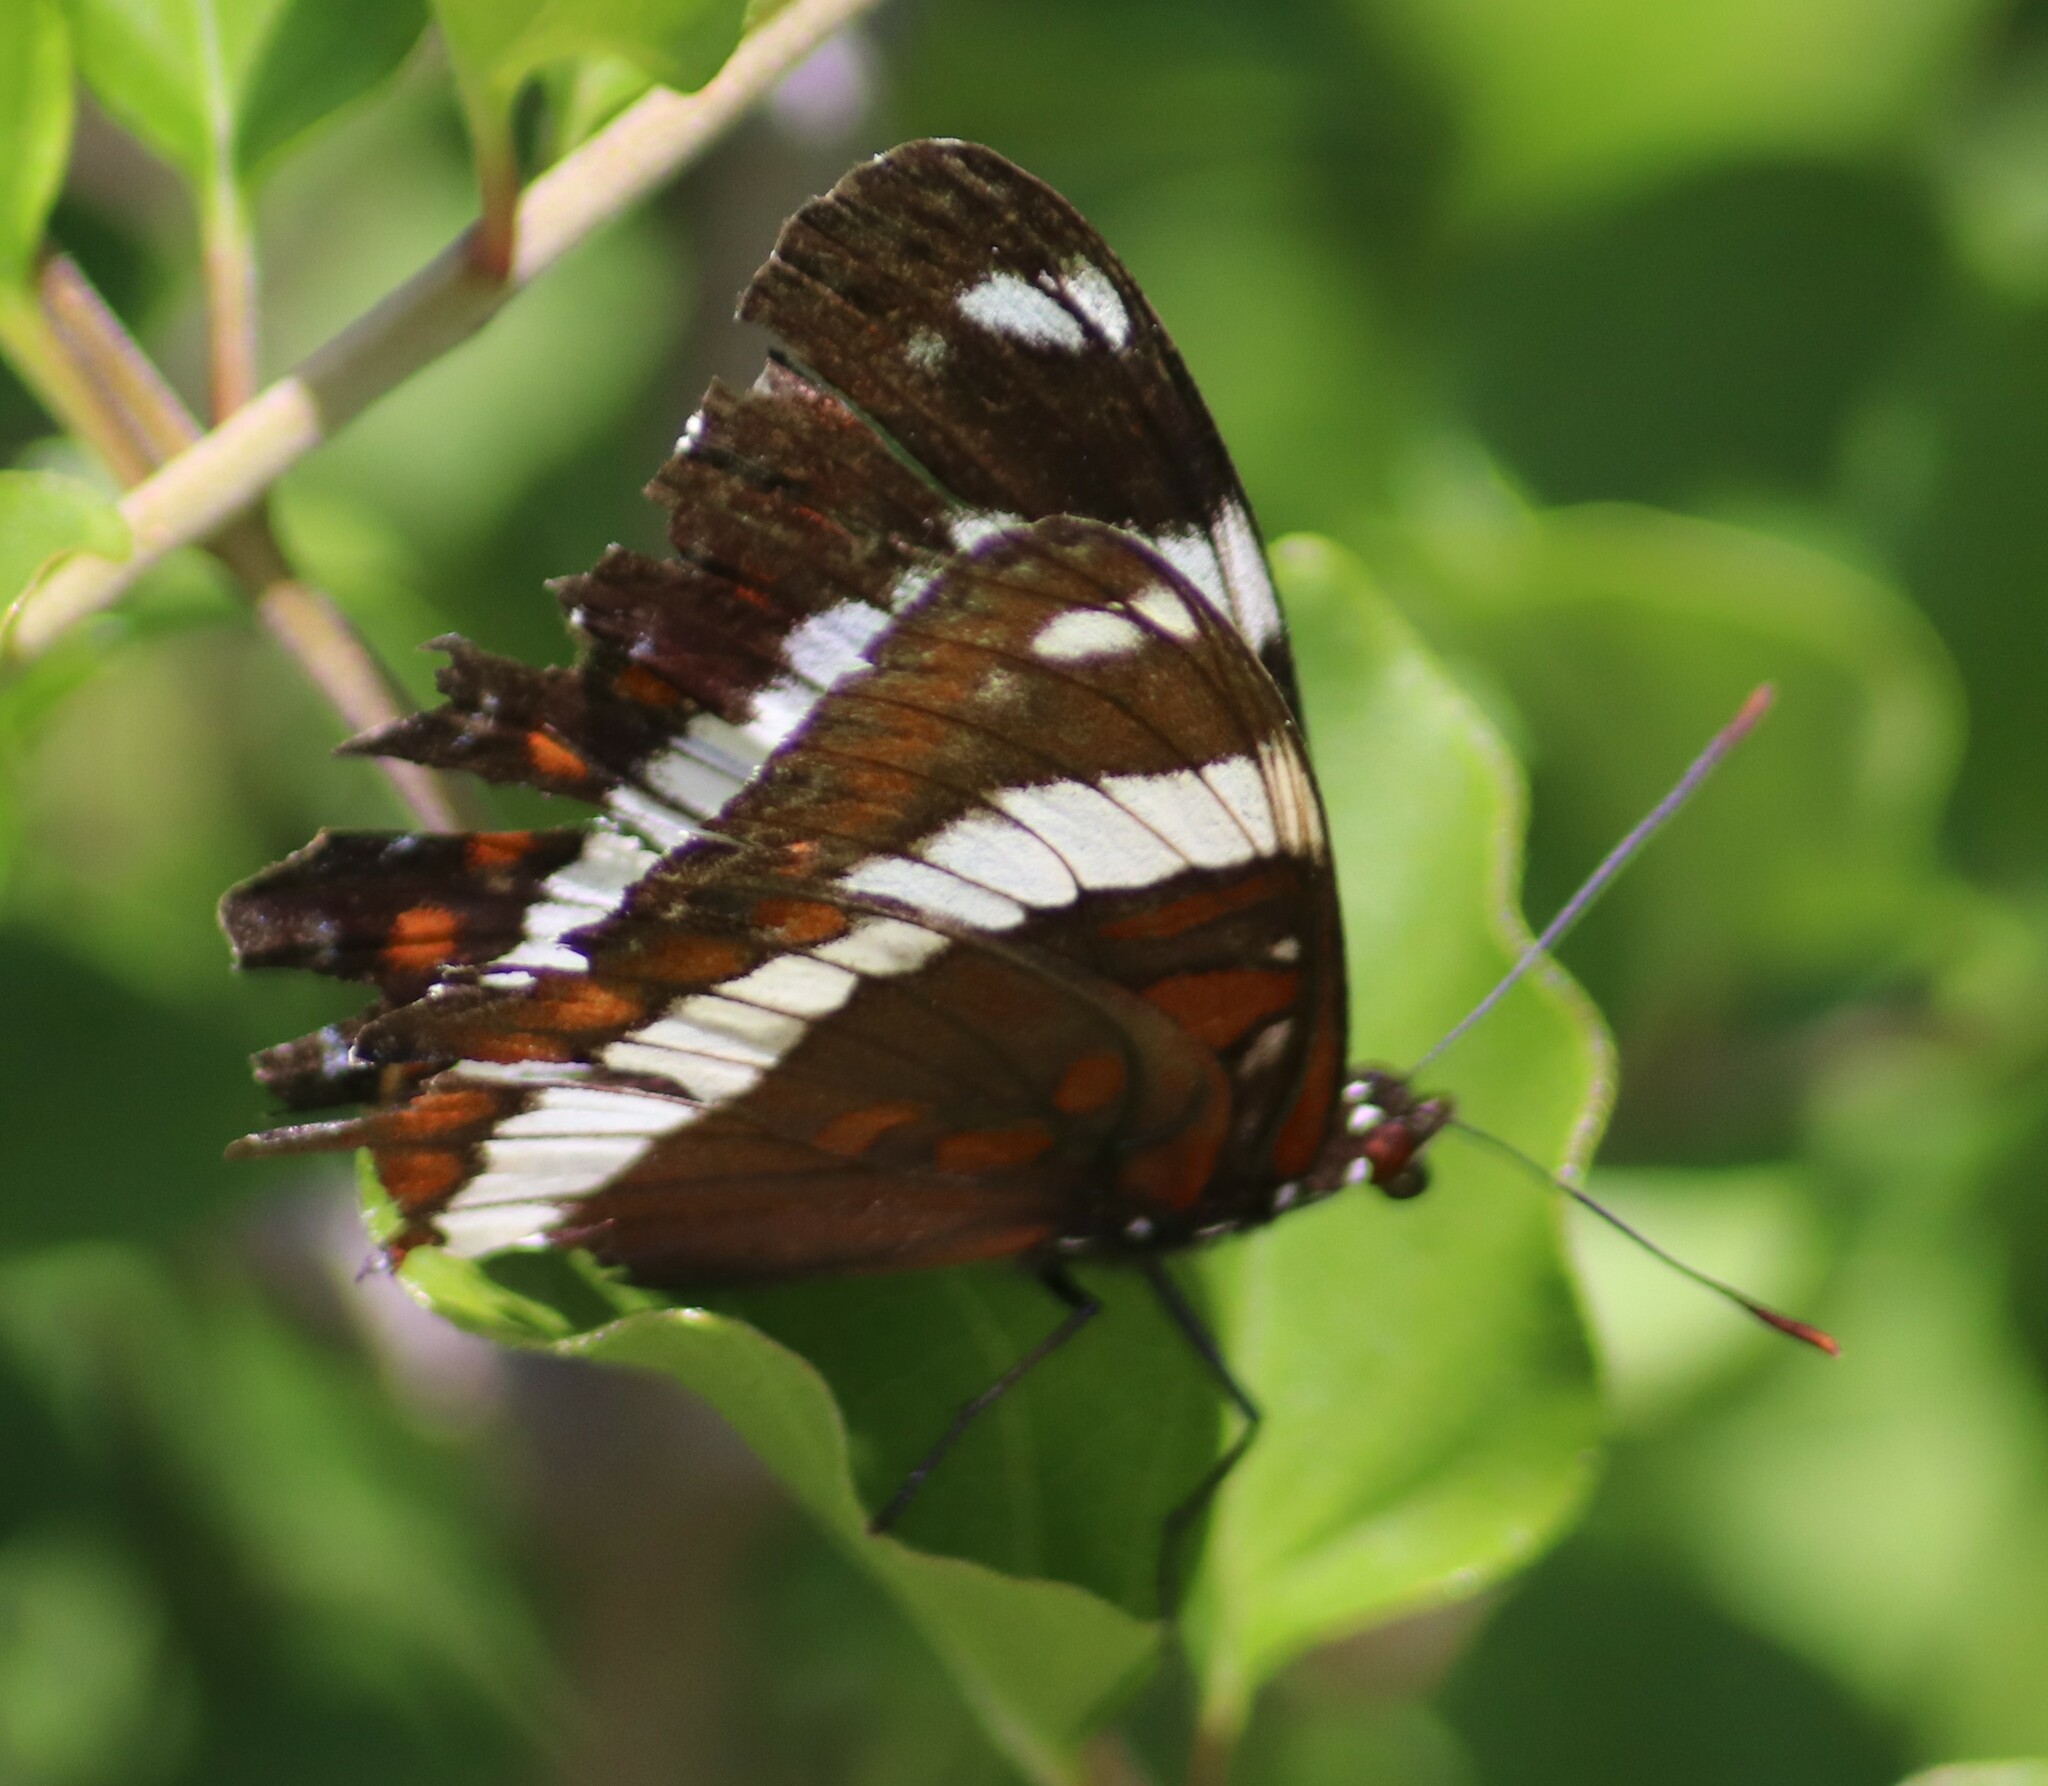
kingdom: Animalia
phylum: Arthropoda
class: Insecta
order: Lepidoptera
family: Nymphalidae
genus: Limenitis
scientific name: Limenitis arthemis
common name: Red-spotted admiral
